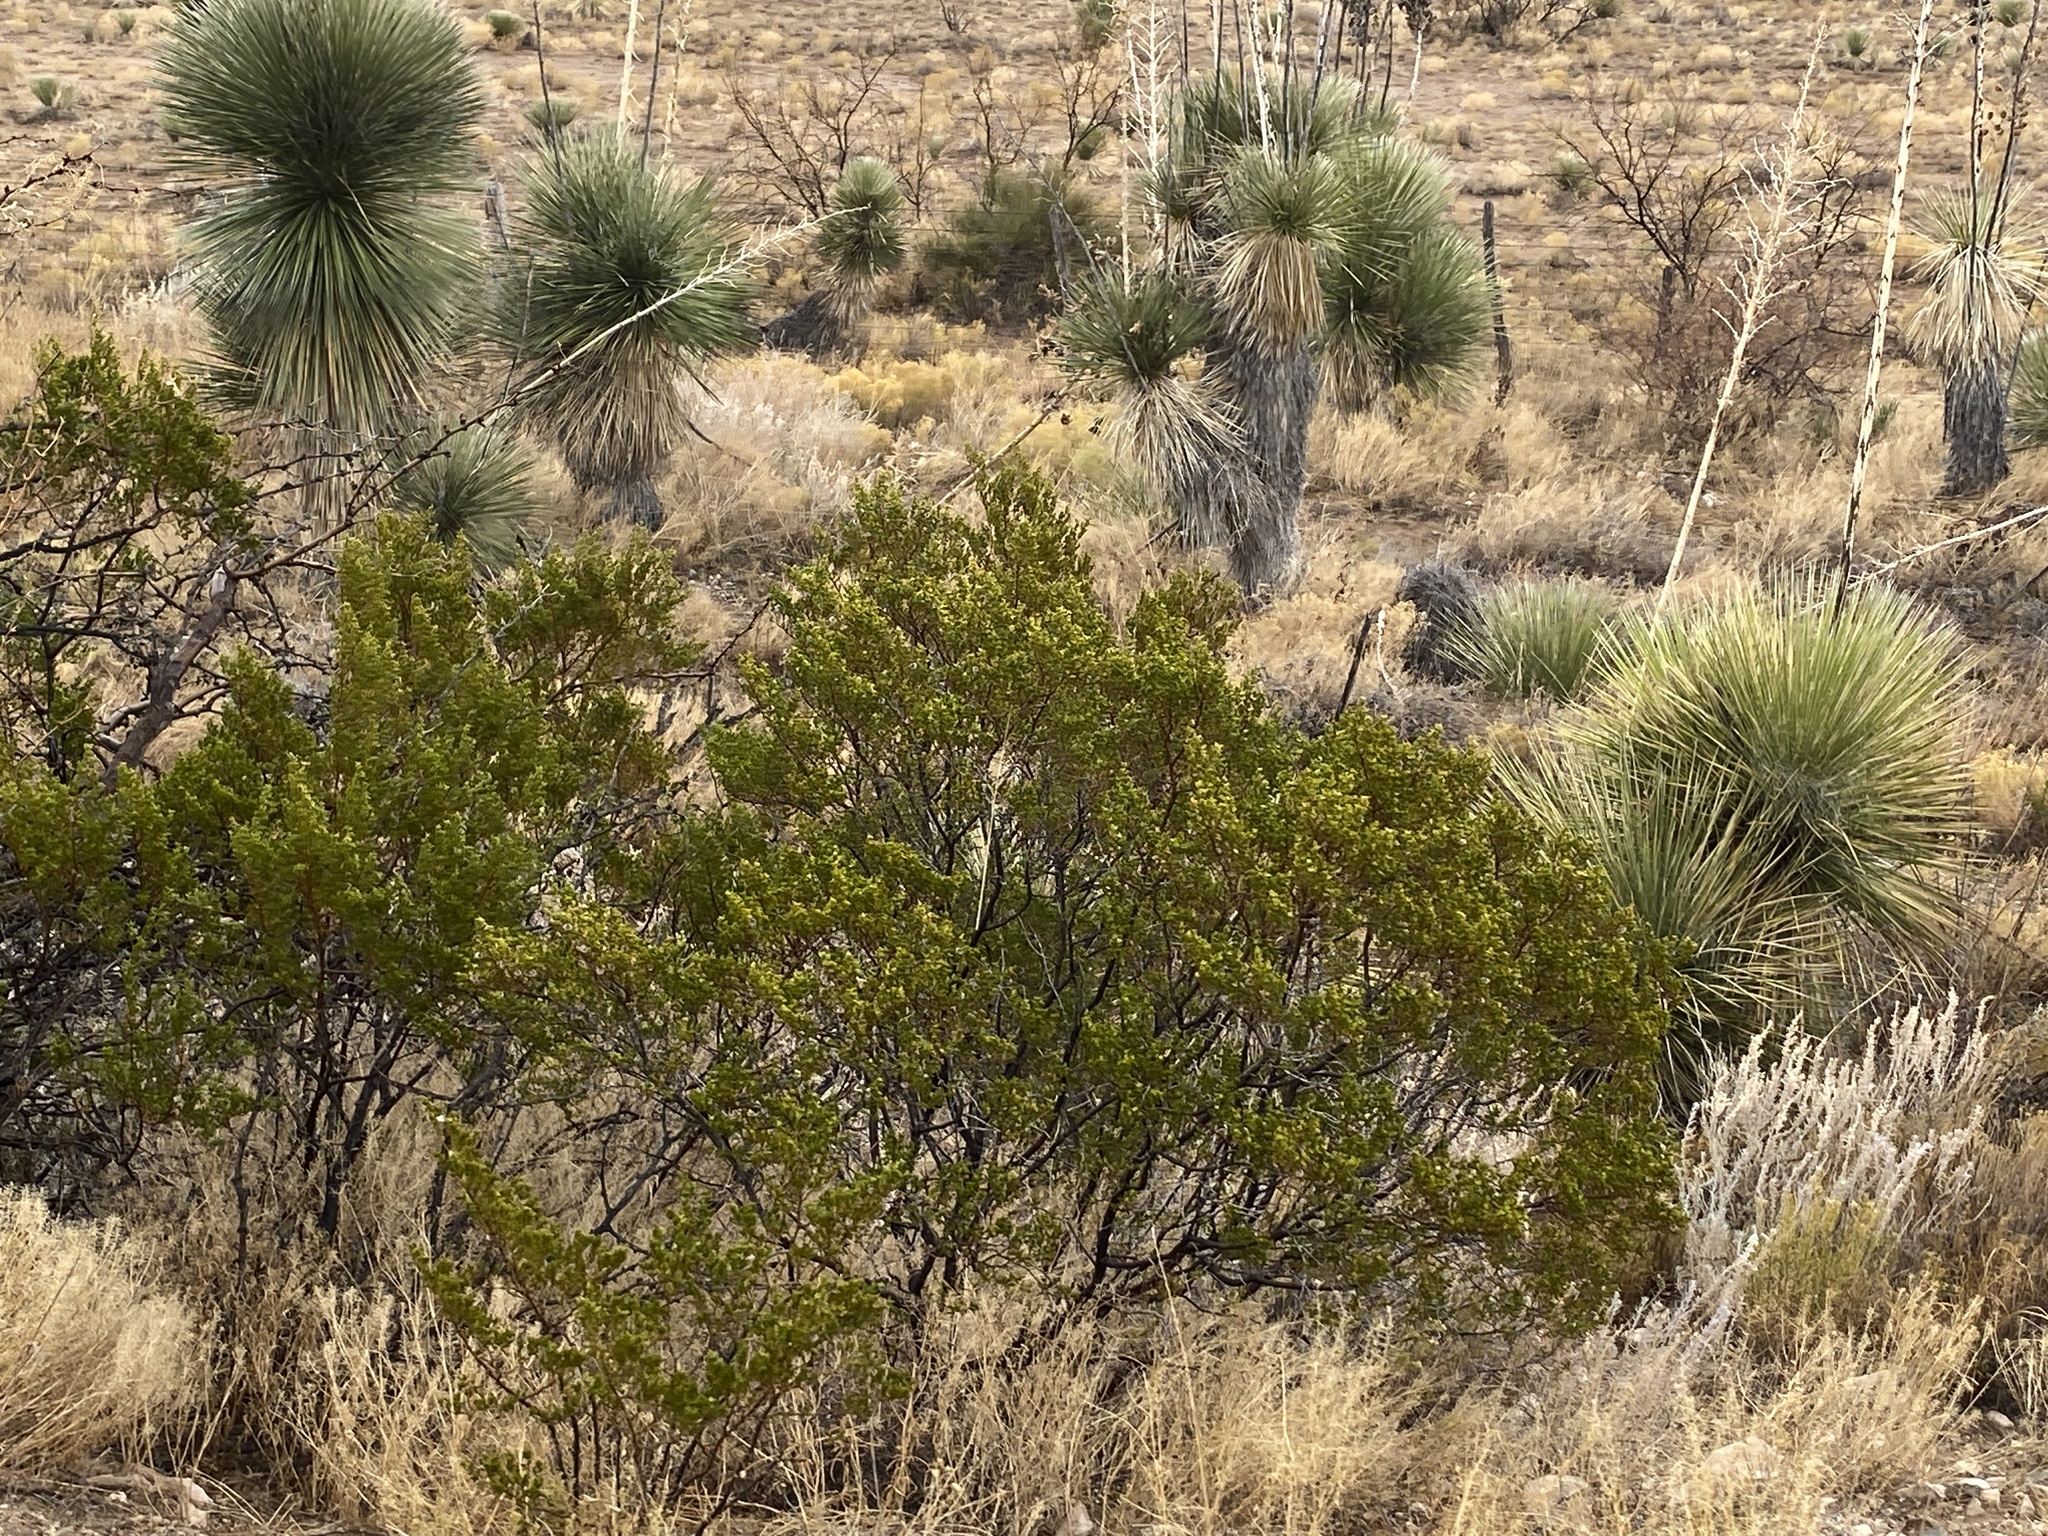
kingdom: Plantae
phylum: Tracheophyta
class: Magnoliopsida
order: Zygophyllales
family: Zygophyllaceae
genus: Larrea
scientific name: Larrea tridentata
